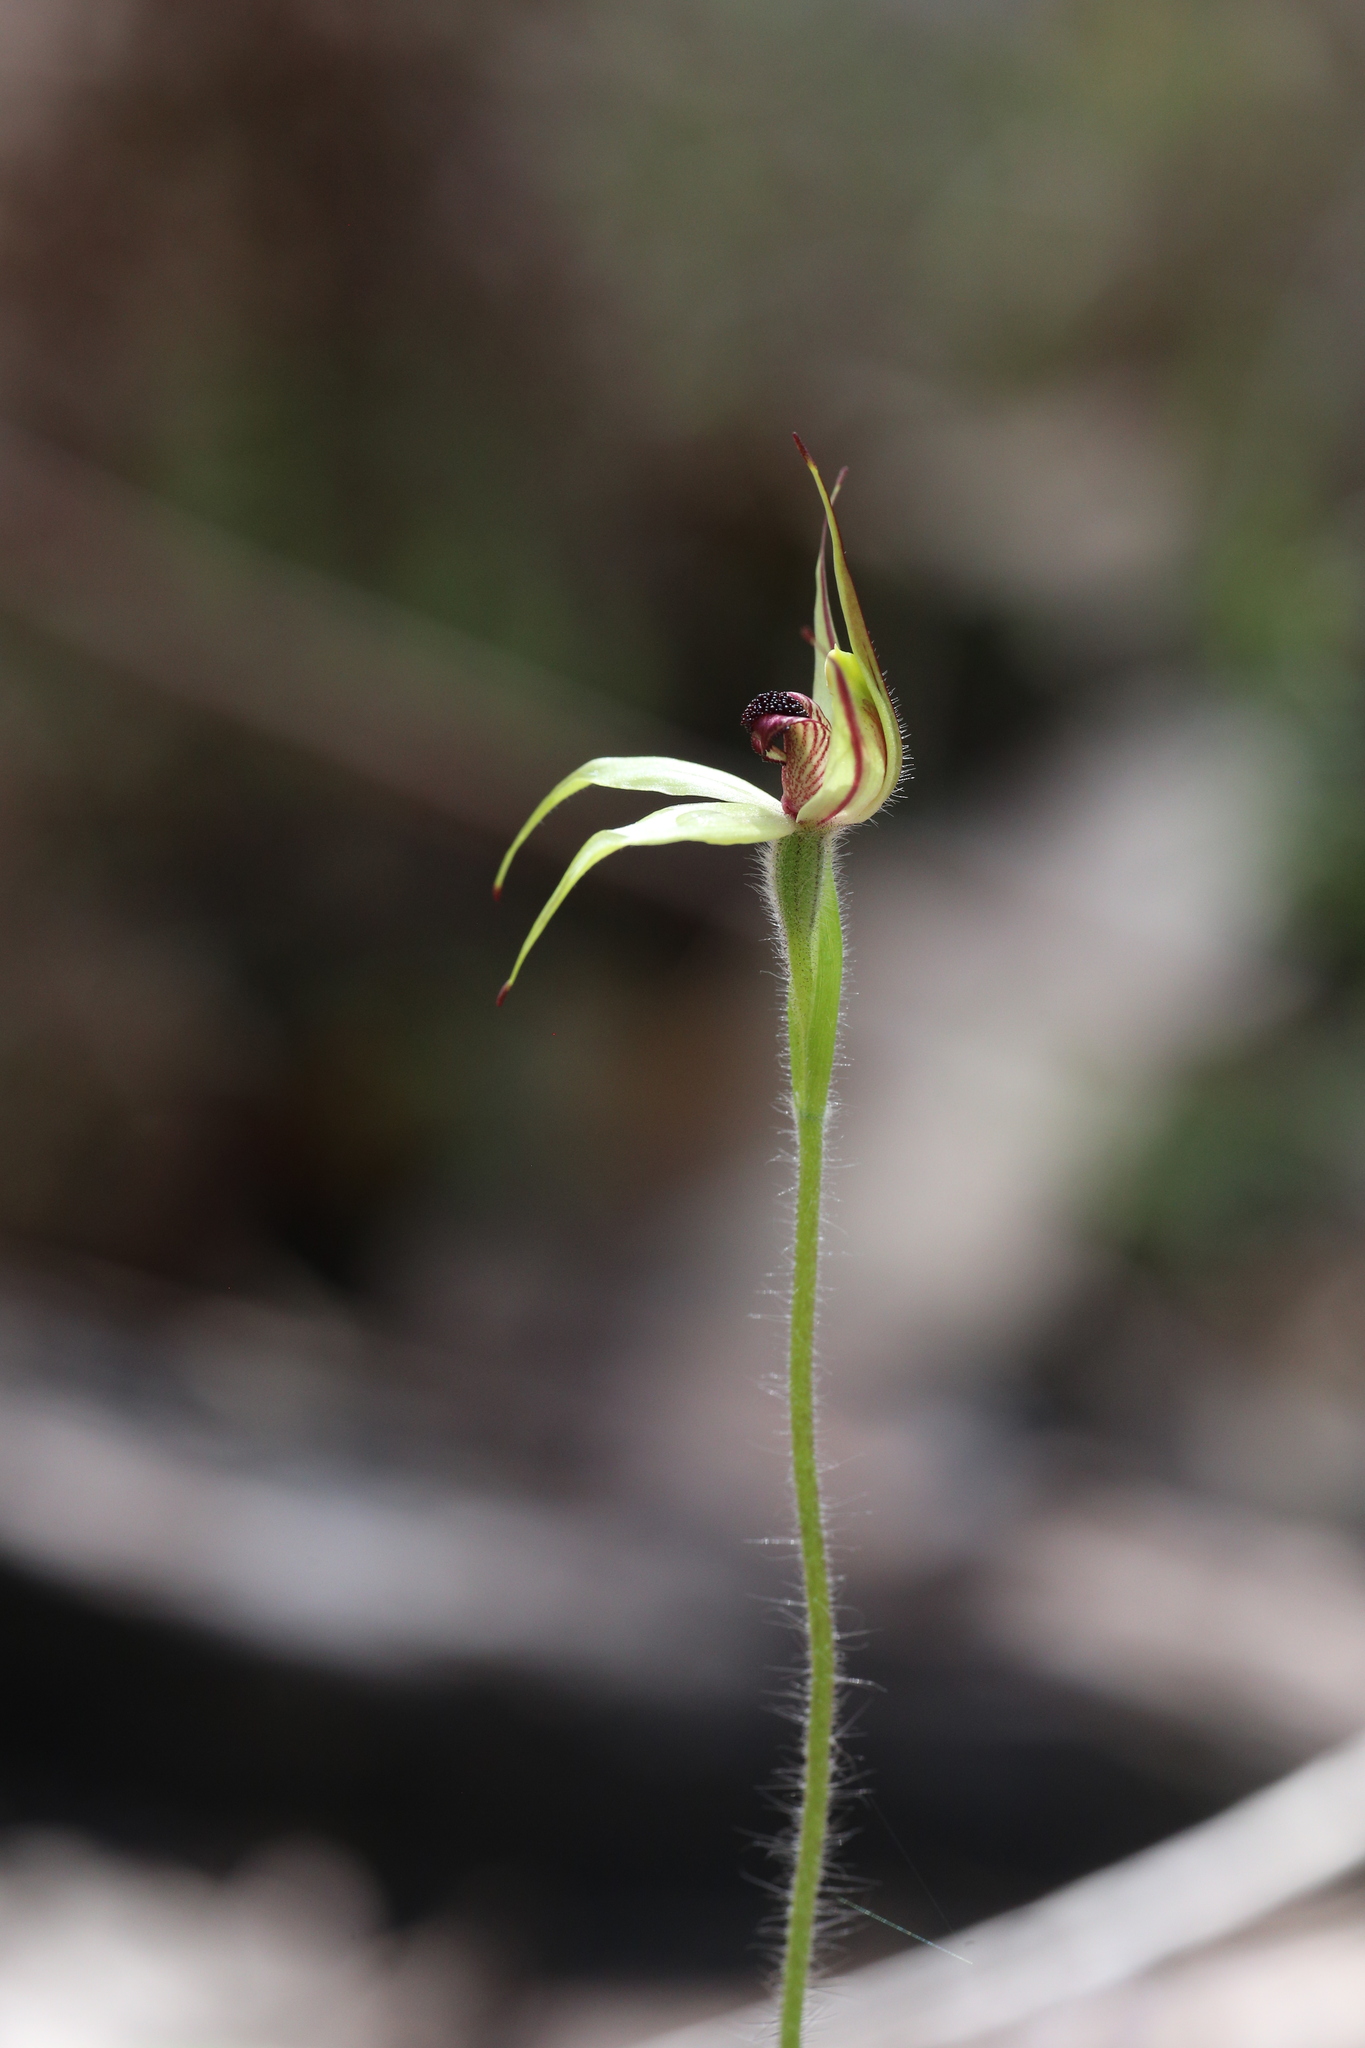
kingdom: Plantae
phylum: Tracheophyta
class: Liliopsida
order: Asparagales
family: Orchidaceae
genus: Caladenia
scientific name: Caladenia macrostylis
